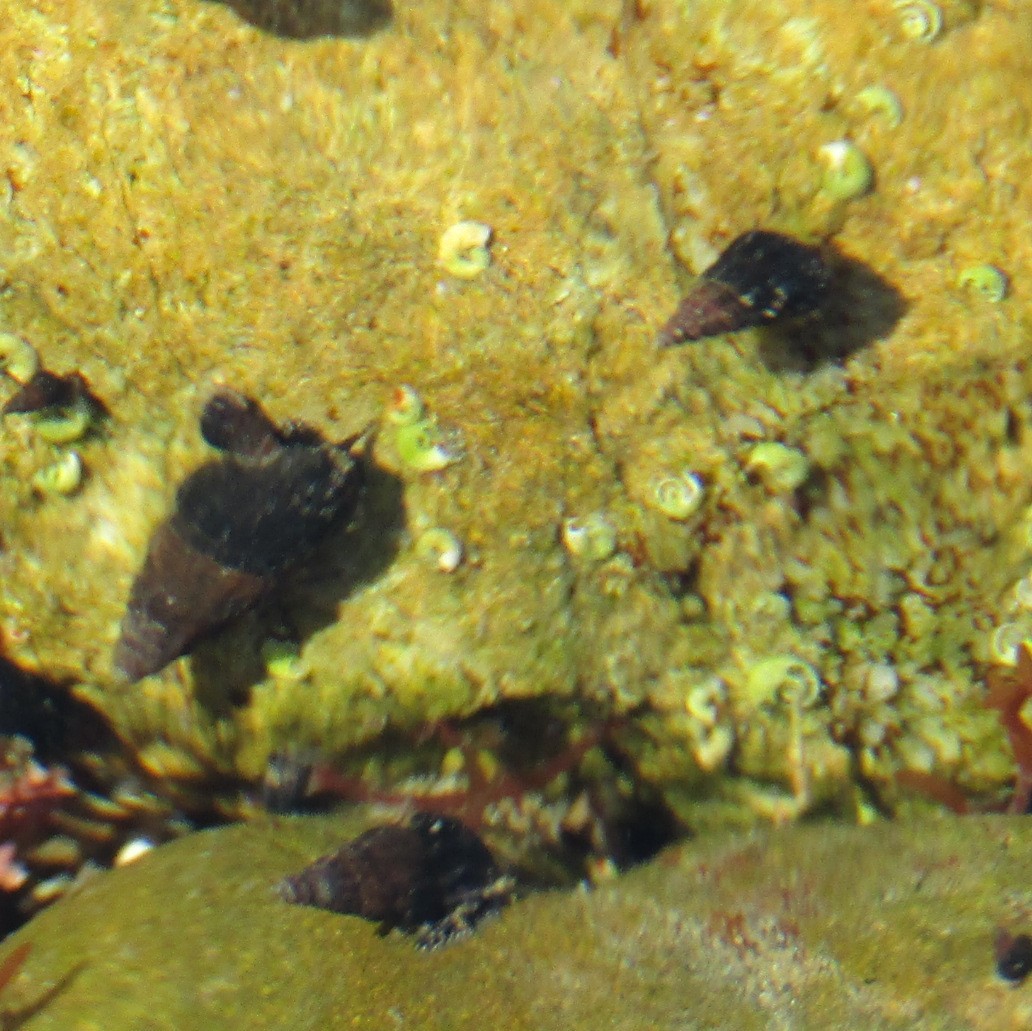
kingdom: Animalia
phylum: Mollusca
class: Gastropoda
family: Batillariidae
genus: Zeacumantus
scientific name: Zeacumantus subcarinatus
